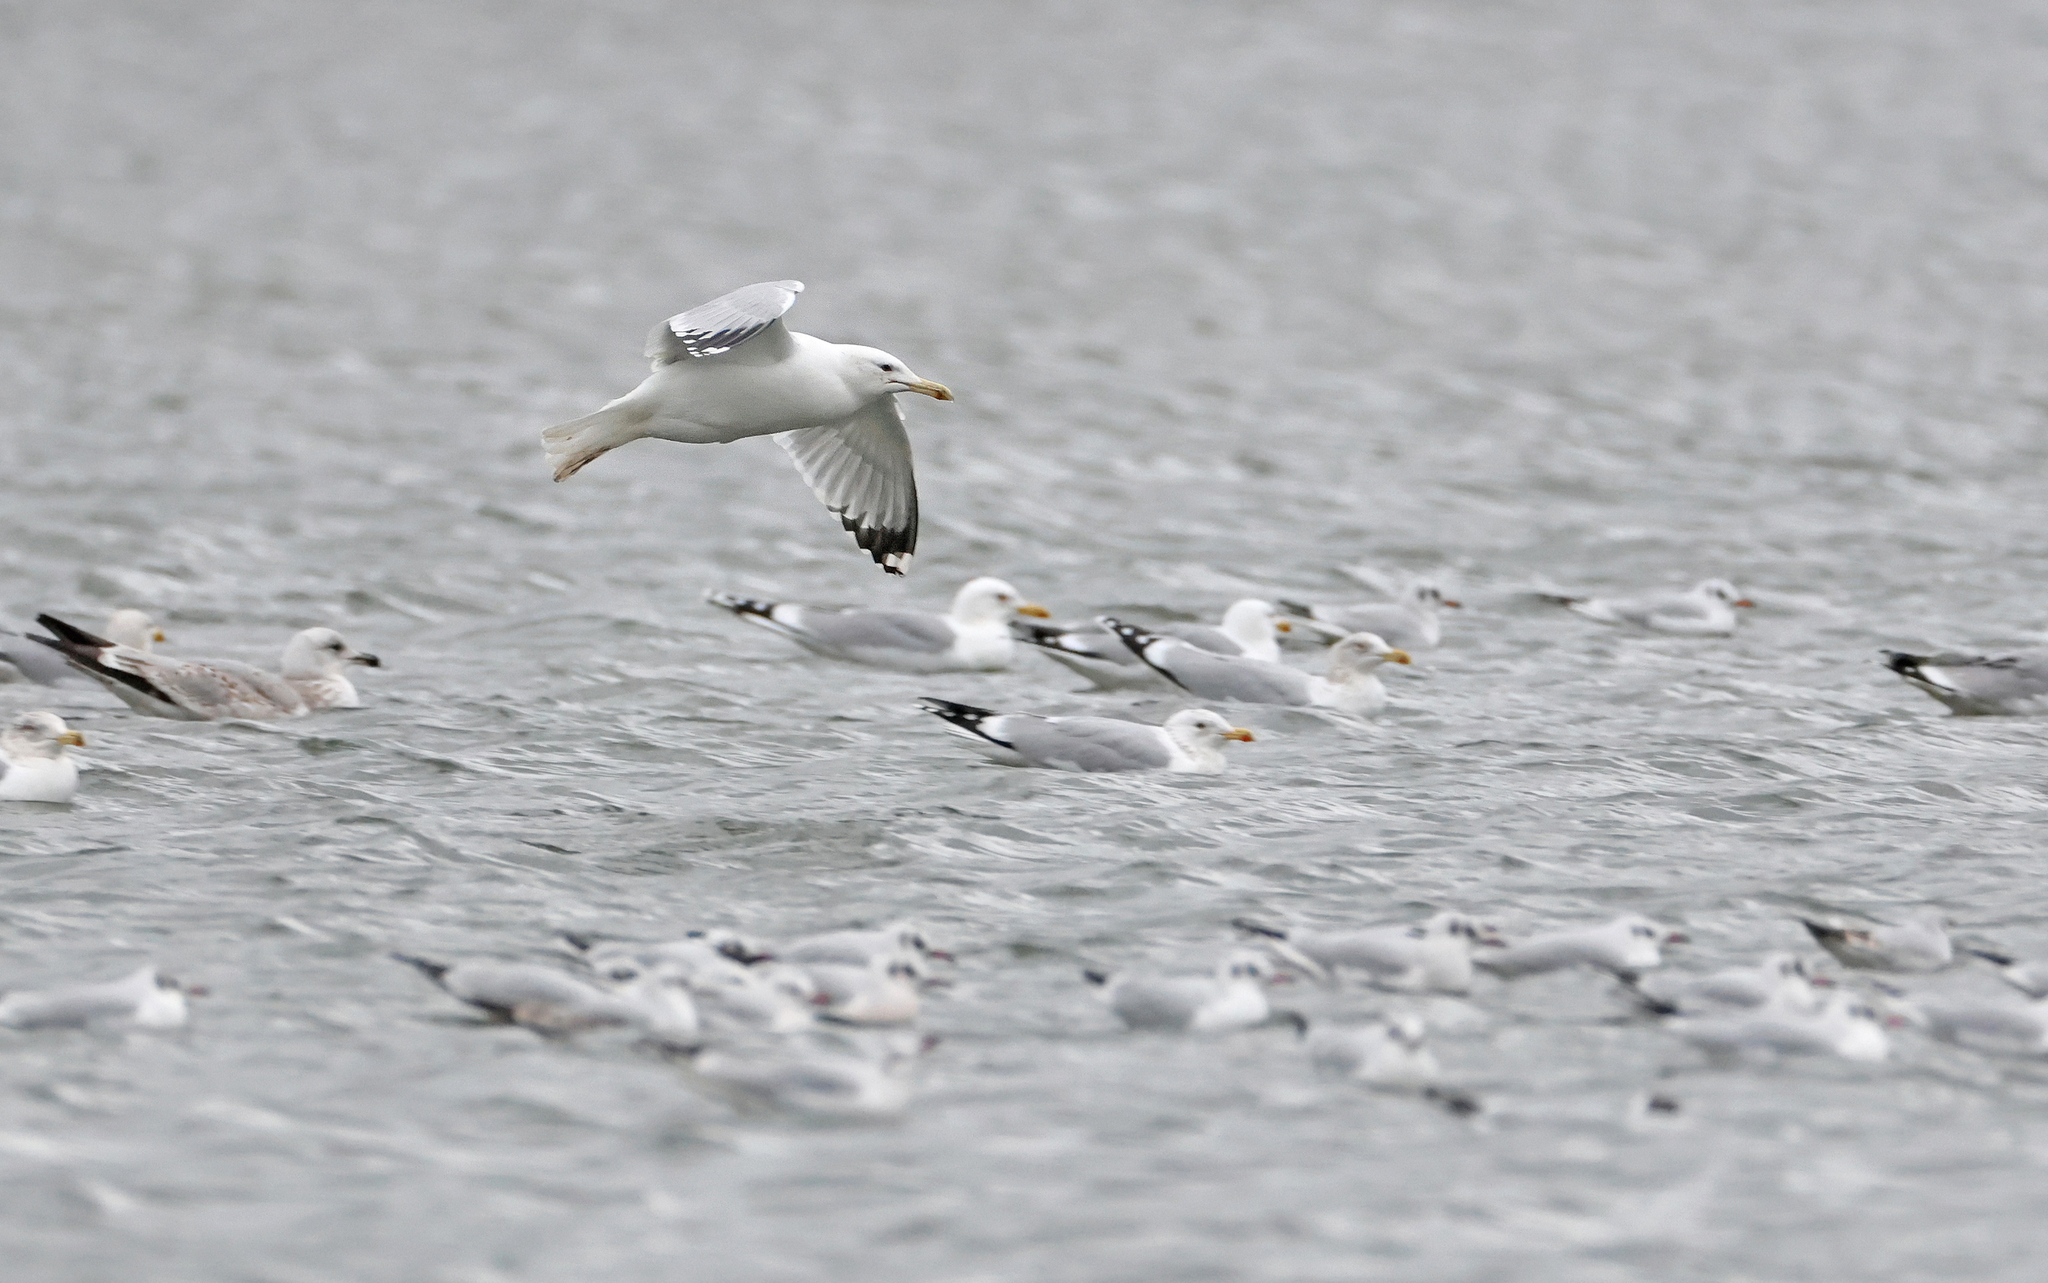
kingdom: Animalia
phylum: Chordata
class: Aves
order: Charadriiformes
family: Laridae
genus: Larus
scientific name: Larus cachinnans
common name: Caspian gull
